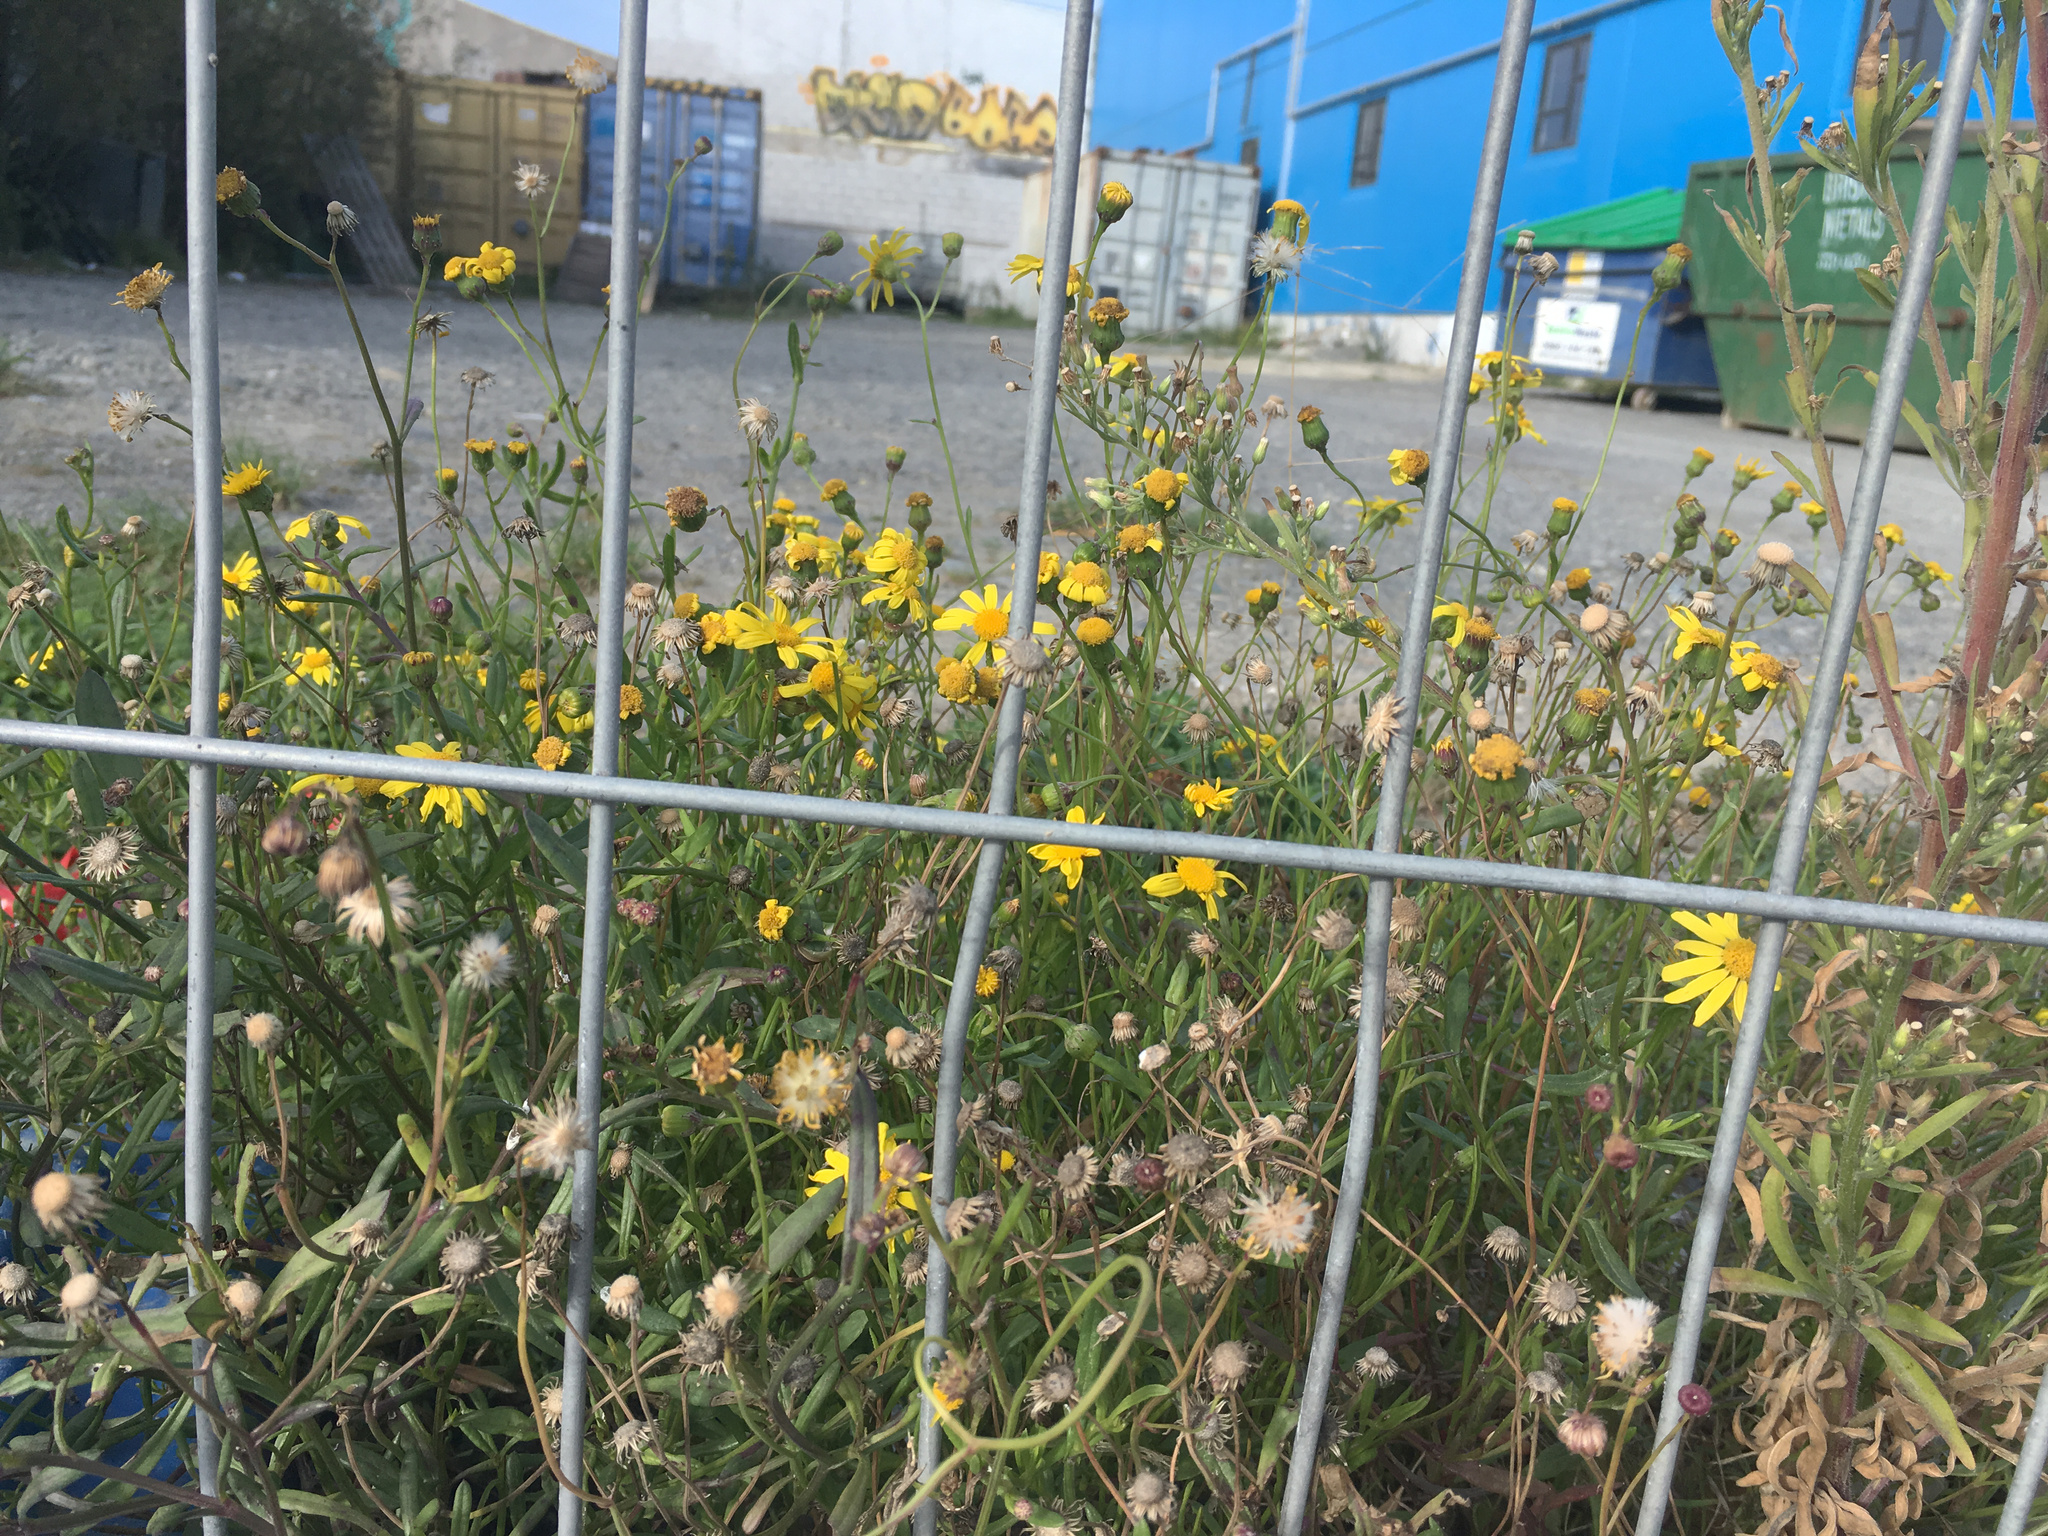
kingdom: Plantae
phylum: Tracheophyta
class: Magnoliopsida
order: Asterales
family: Asteraceae
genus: Senecio
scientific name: Senecio skirrhodon
